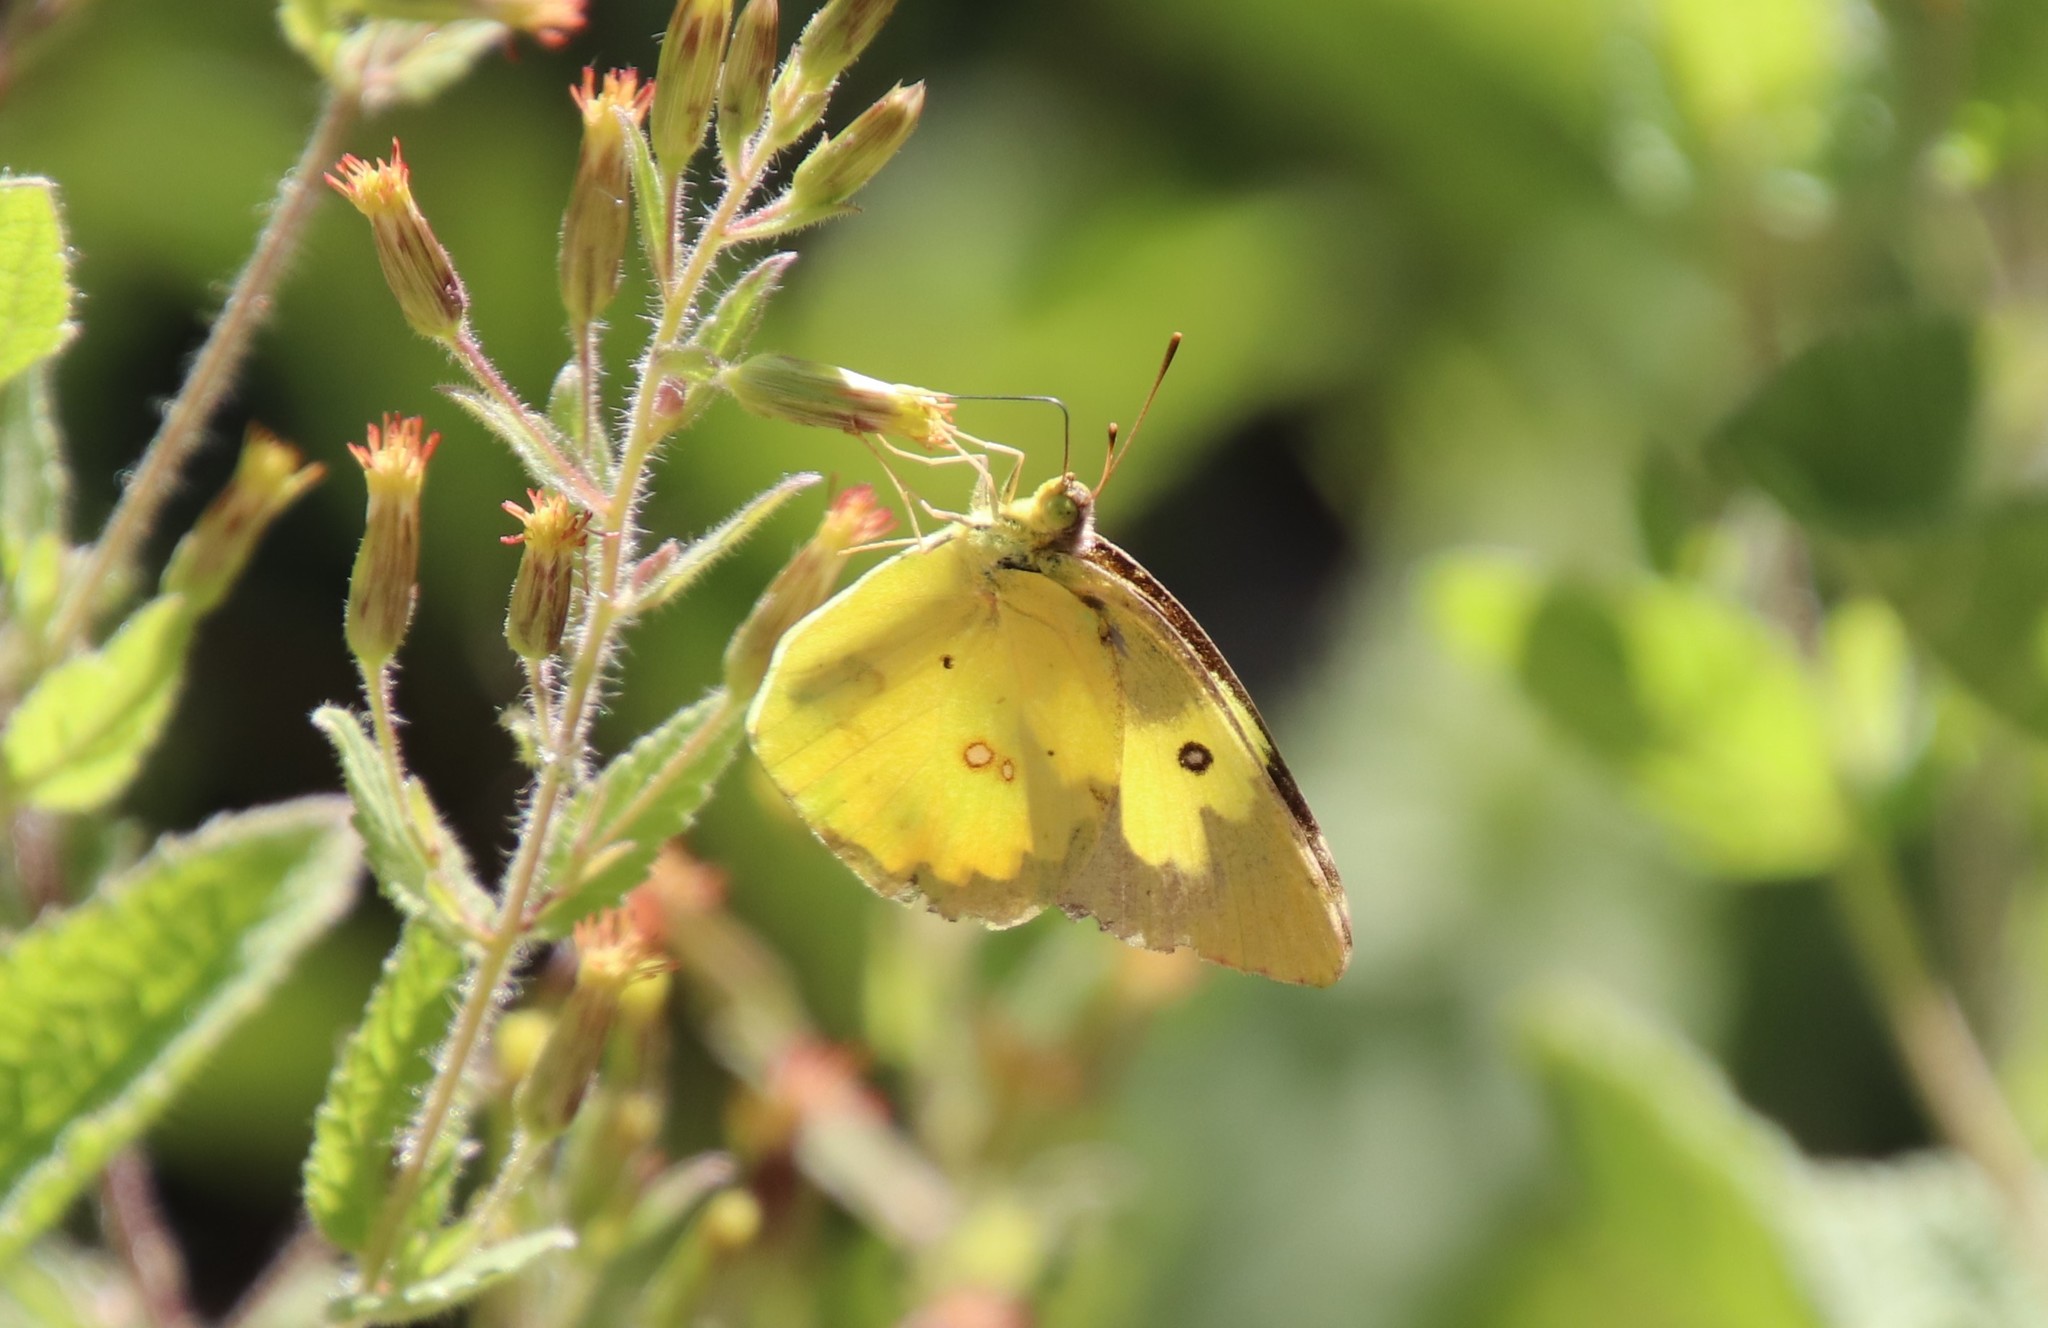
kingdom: Animalia
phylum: Arthropoda
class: Insecta
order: Lepidoptera
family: Pieridae
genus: Zerene
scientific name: Zerene cesonia
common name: Southern dogface
